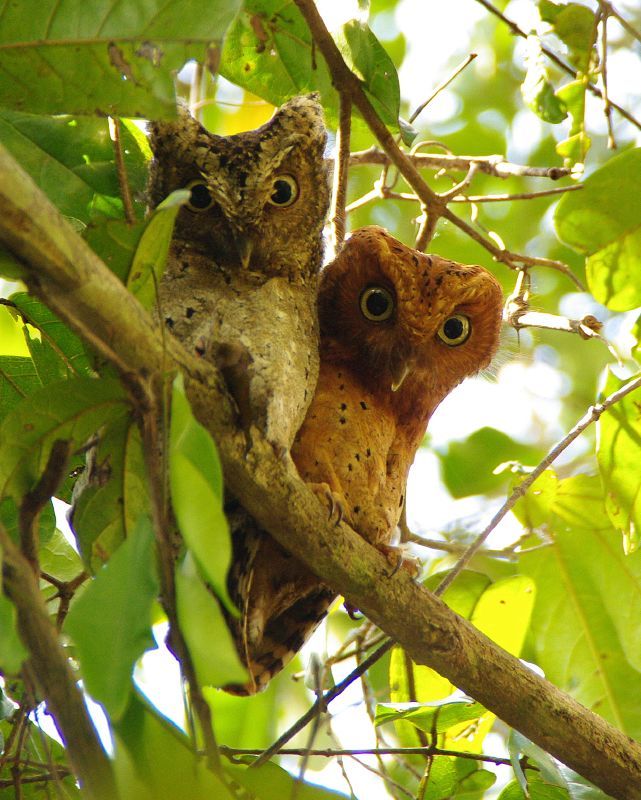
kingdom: Animalia
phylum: Chordata
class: Aves
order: Strigiformes
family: Strigidae
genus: Otus
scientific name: Otus ireneae
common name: Sokoke scops-owl
